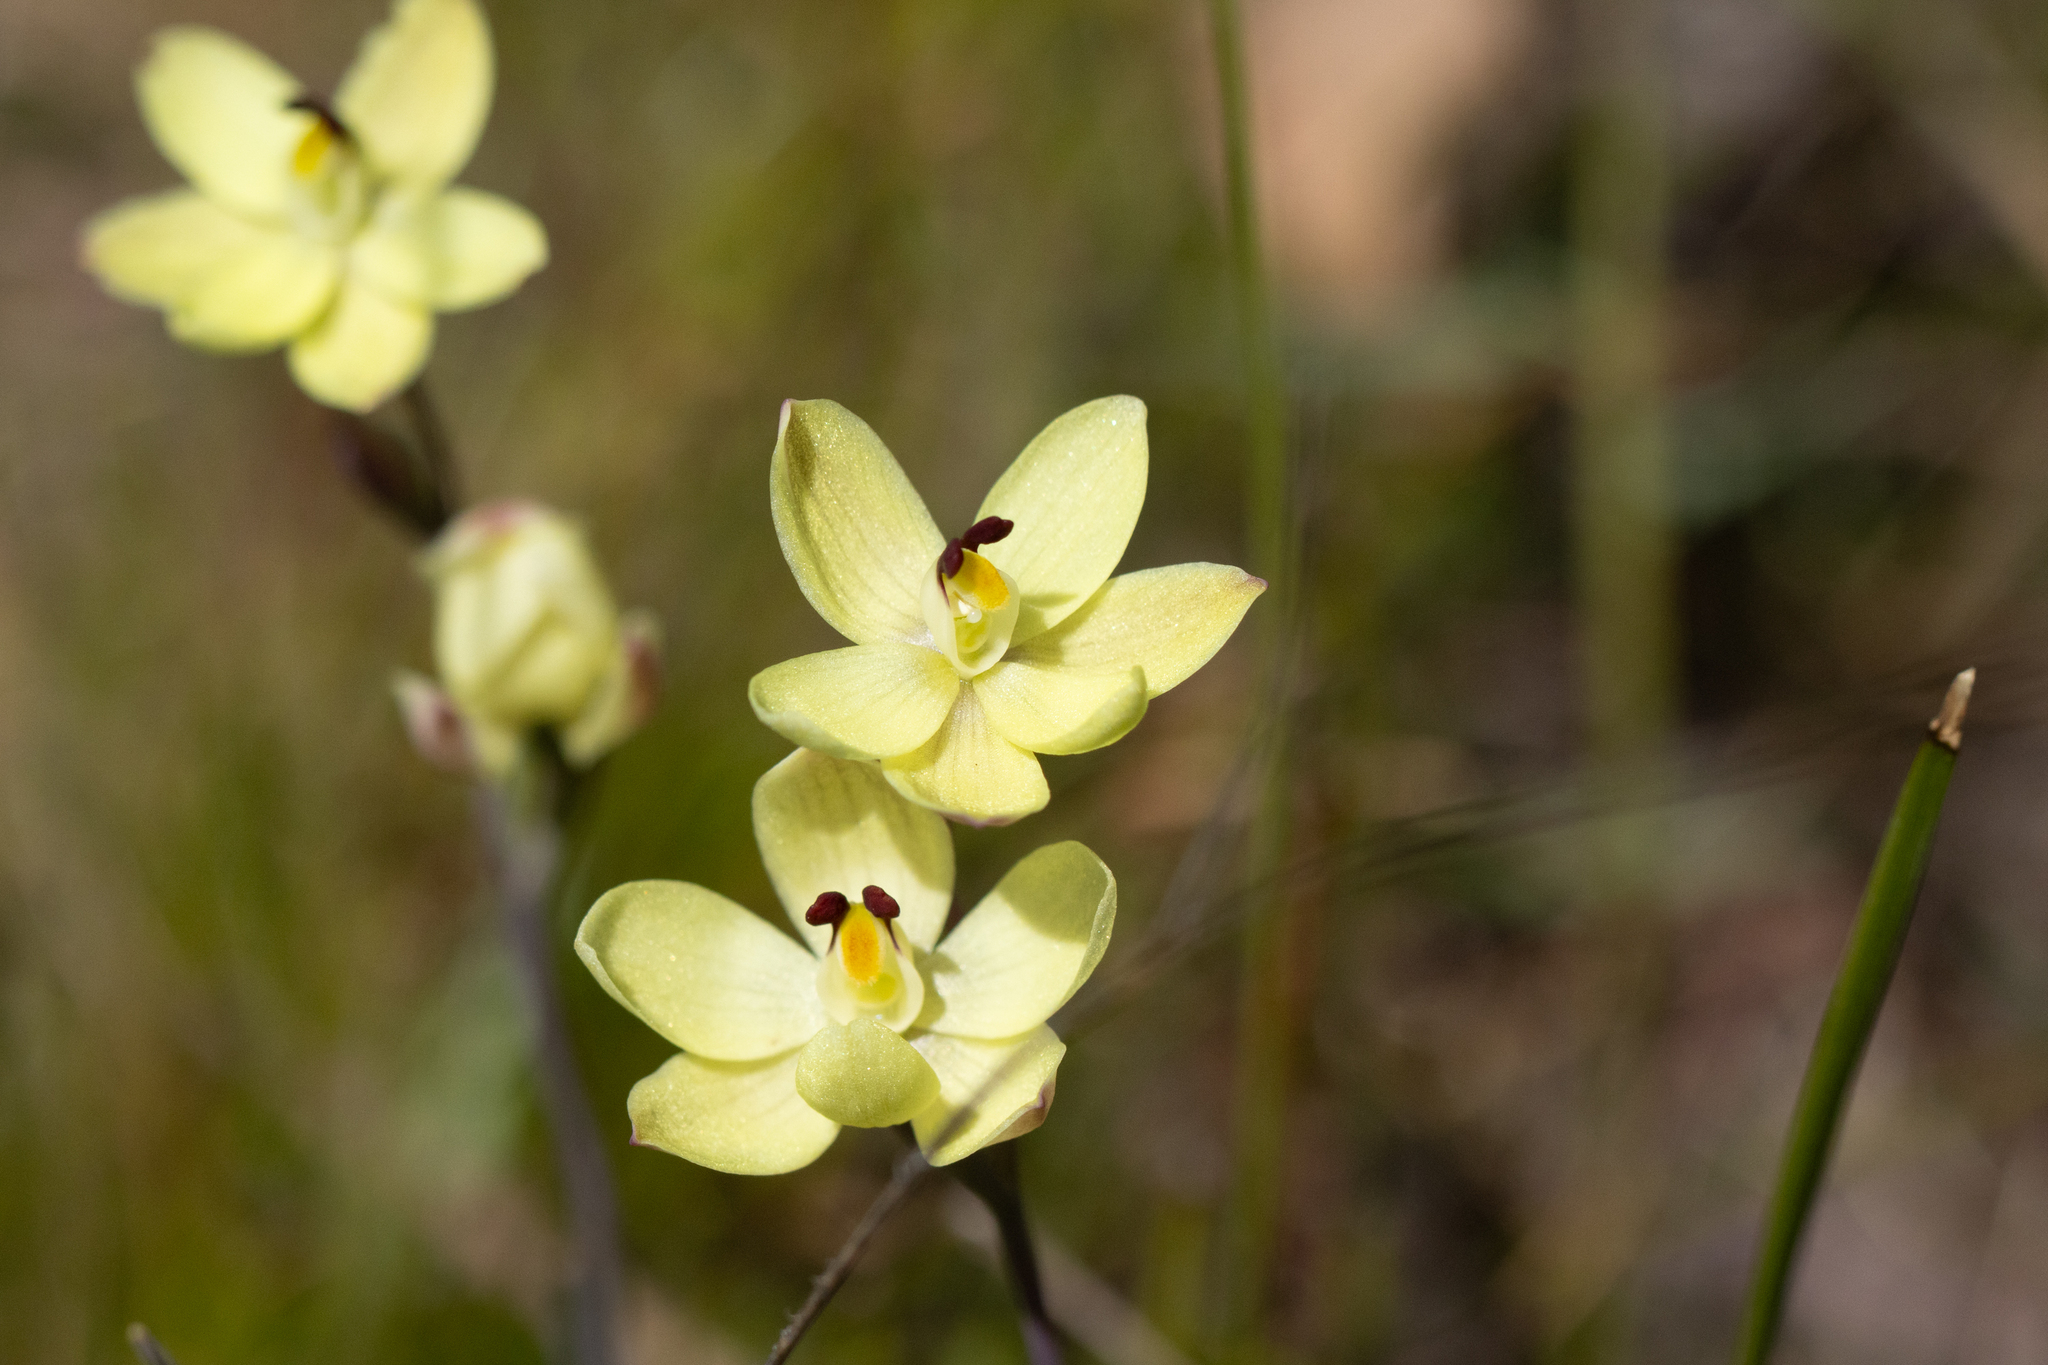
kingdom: Plantae
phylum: Tracheophyta
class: Liliopsida
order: Asparagales
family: Orchidaceae
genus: Thelymitra
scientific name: Thelymitra antennifera
